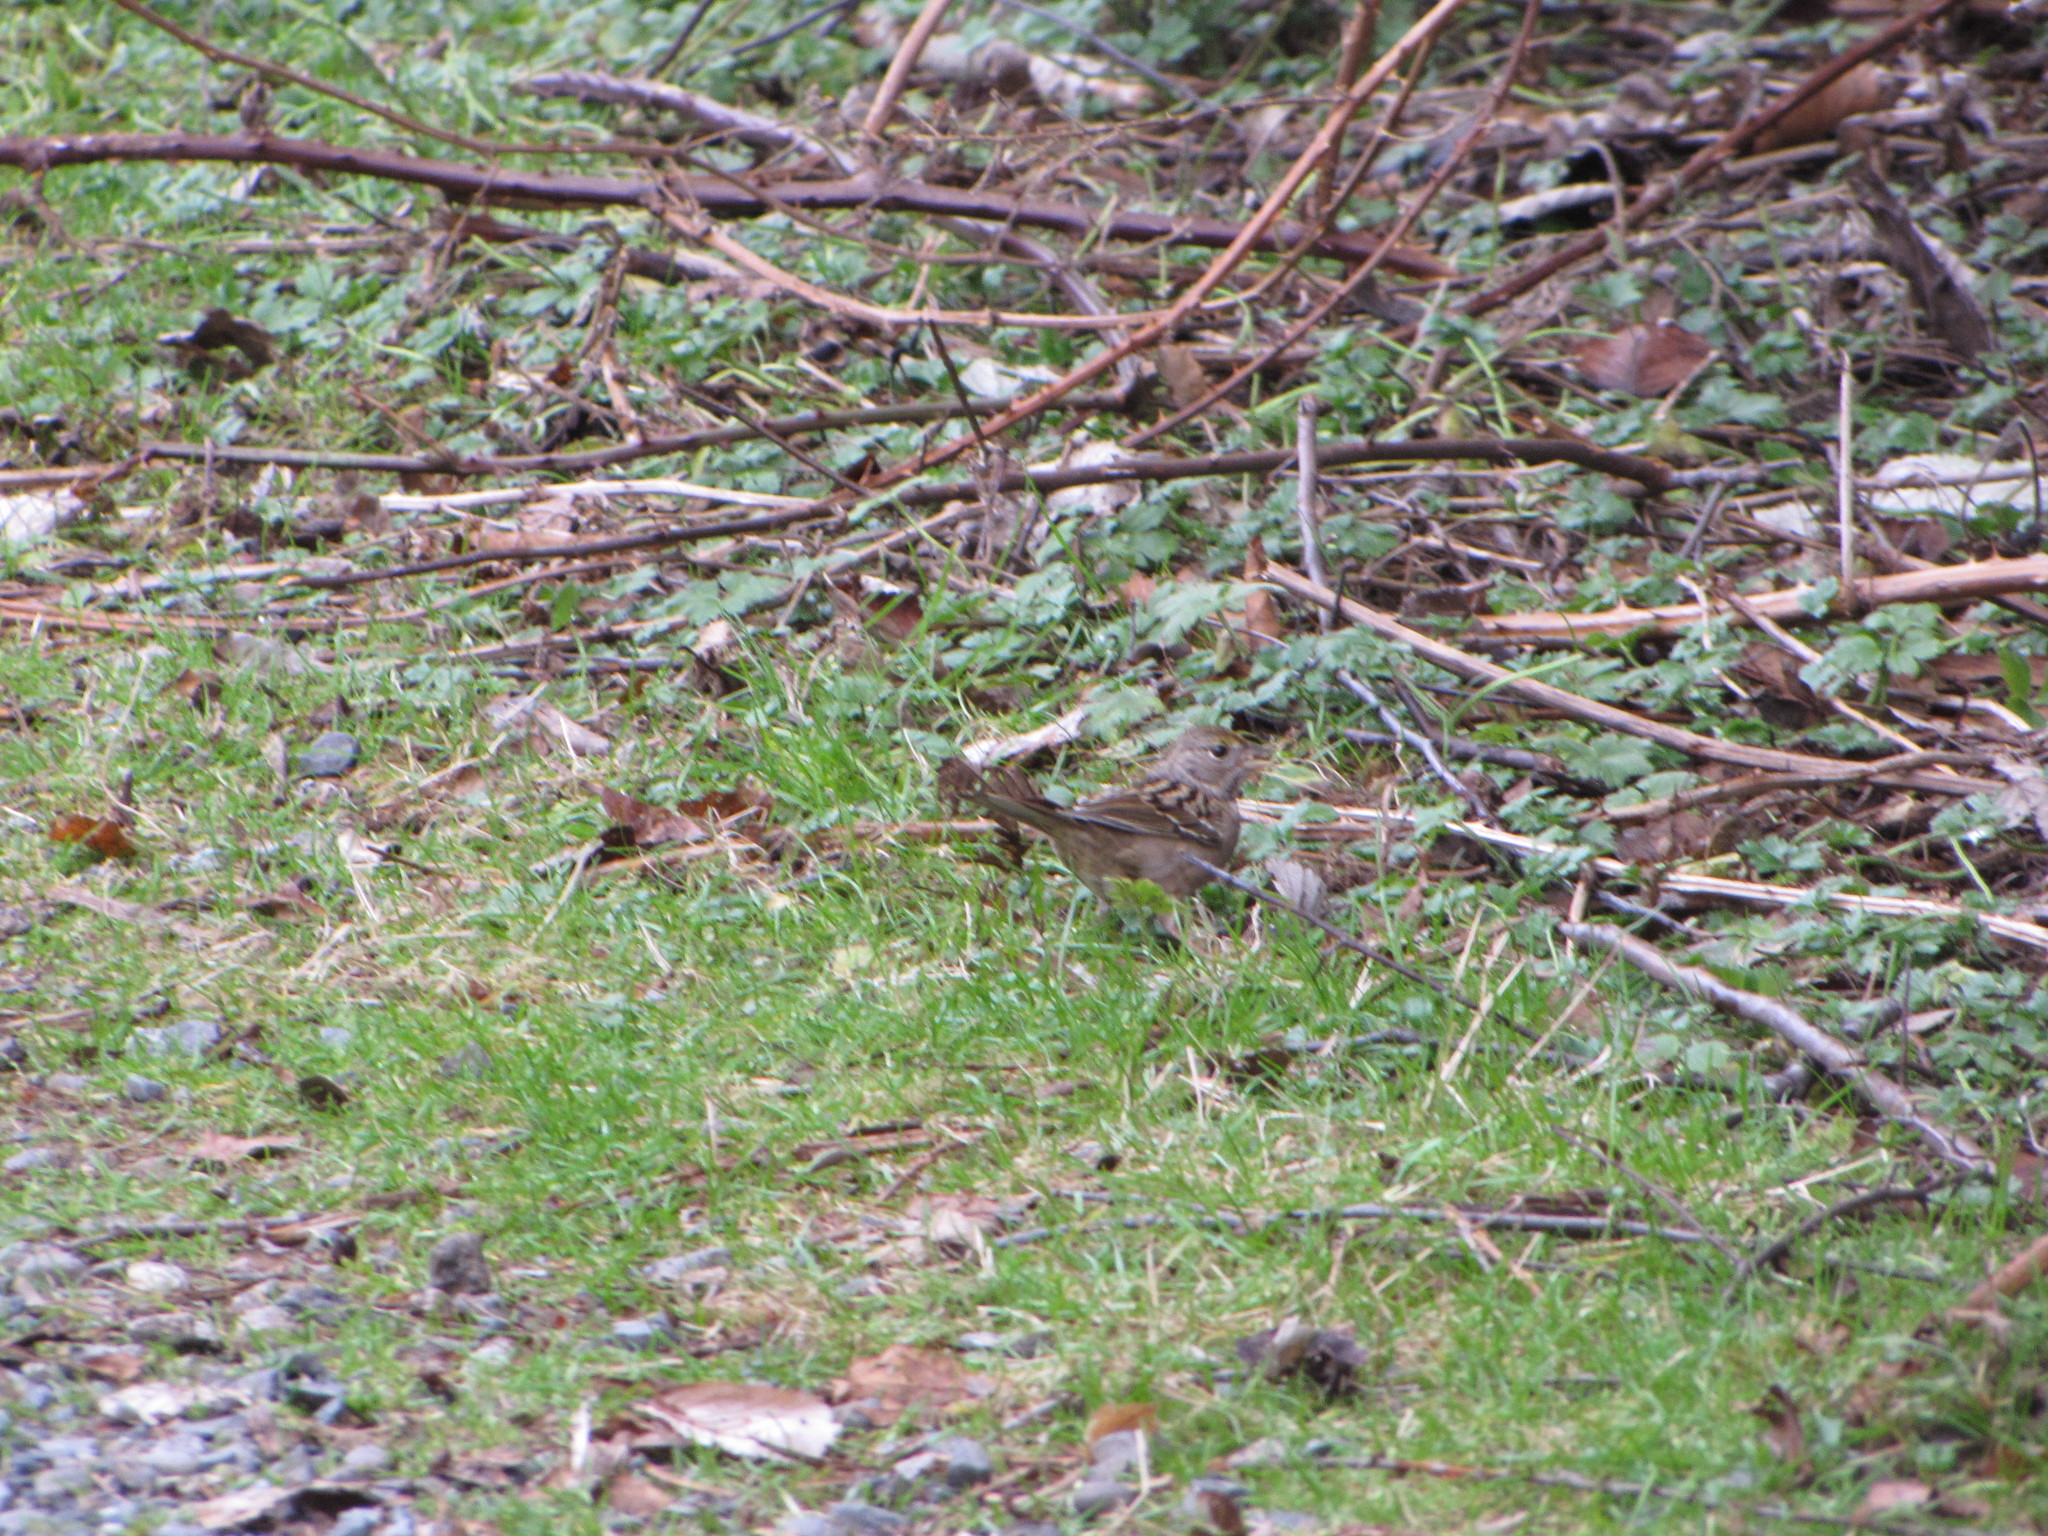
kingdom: Animalia
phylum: Chordata
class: Aves
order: Passeriformes
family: Passerellidae
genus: Zonotrichia
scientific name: Zonotrichia atricapilla
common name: Golden-crowned sparrow
